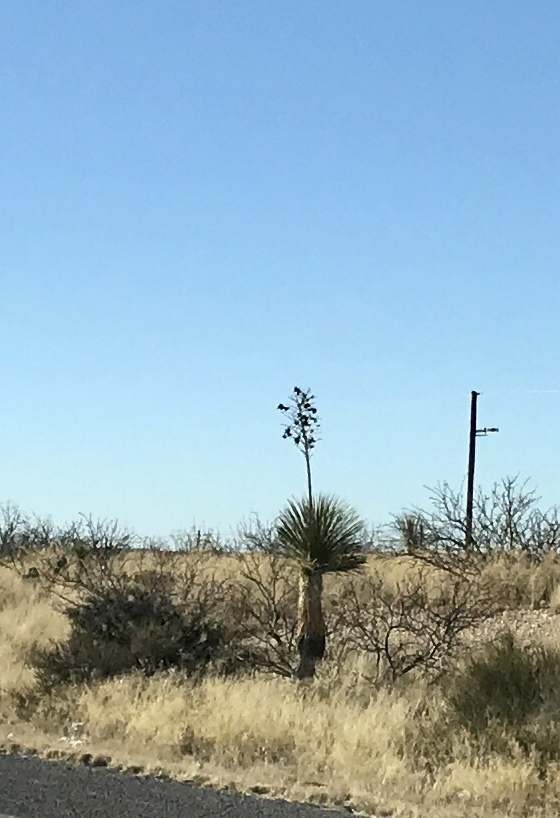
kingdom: Plantae
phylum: Tracheophyta
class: Liliopsida
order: Asparagales
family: Asparagaceae
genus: Yucca
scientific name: Yucca elata
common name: Palmella
